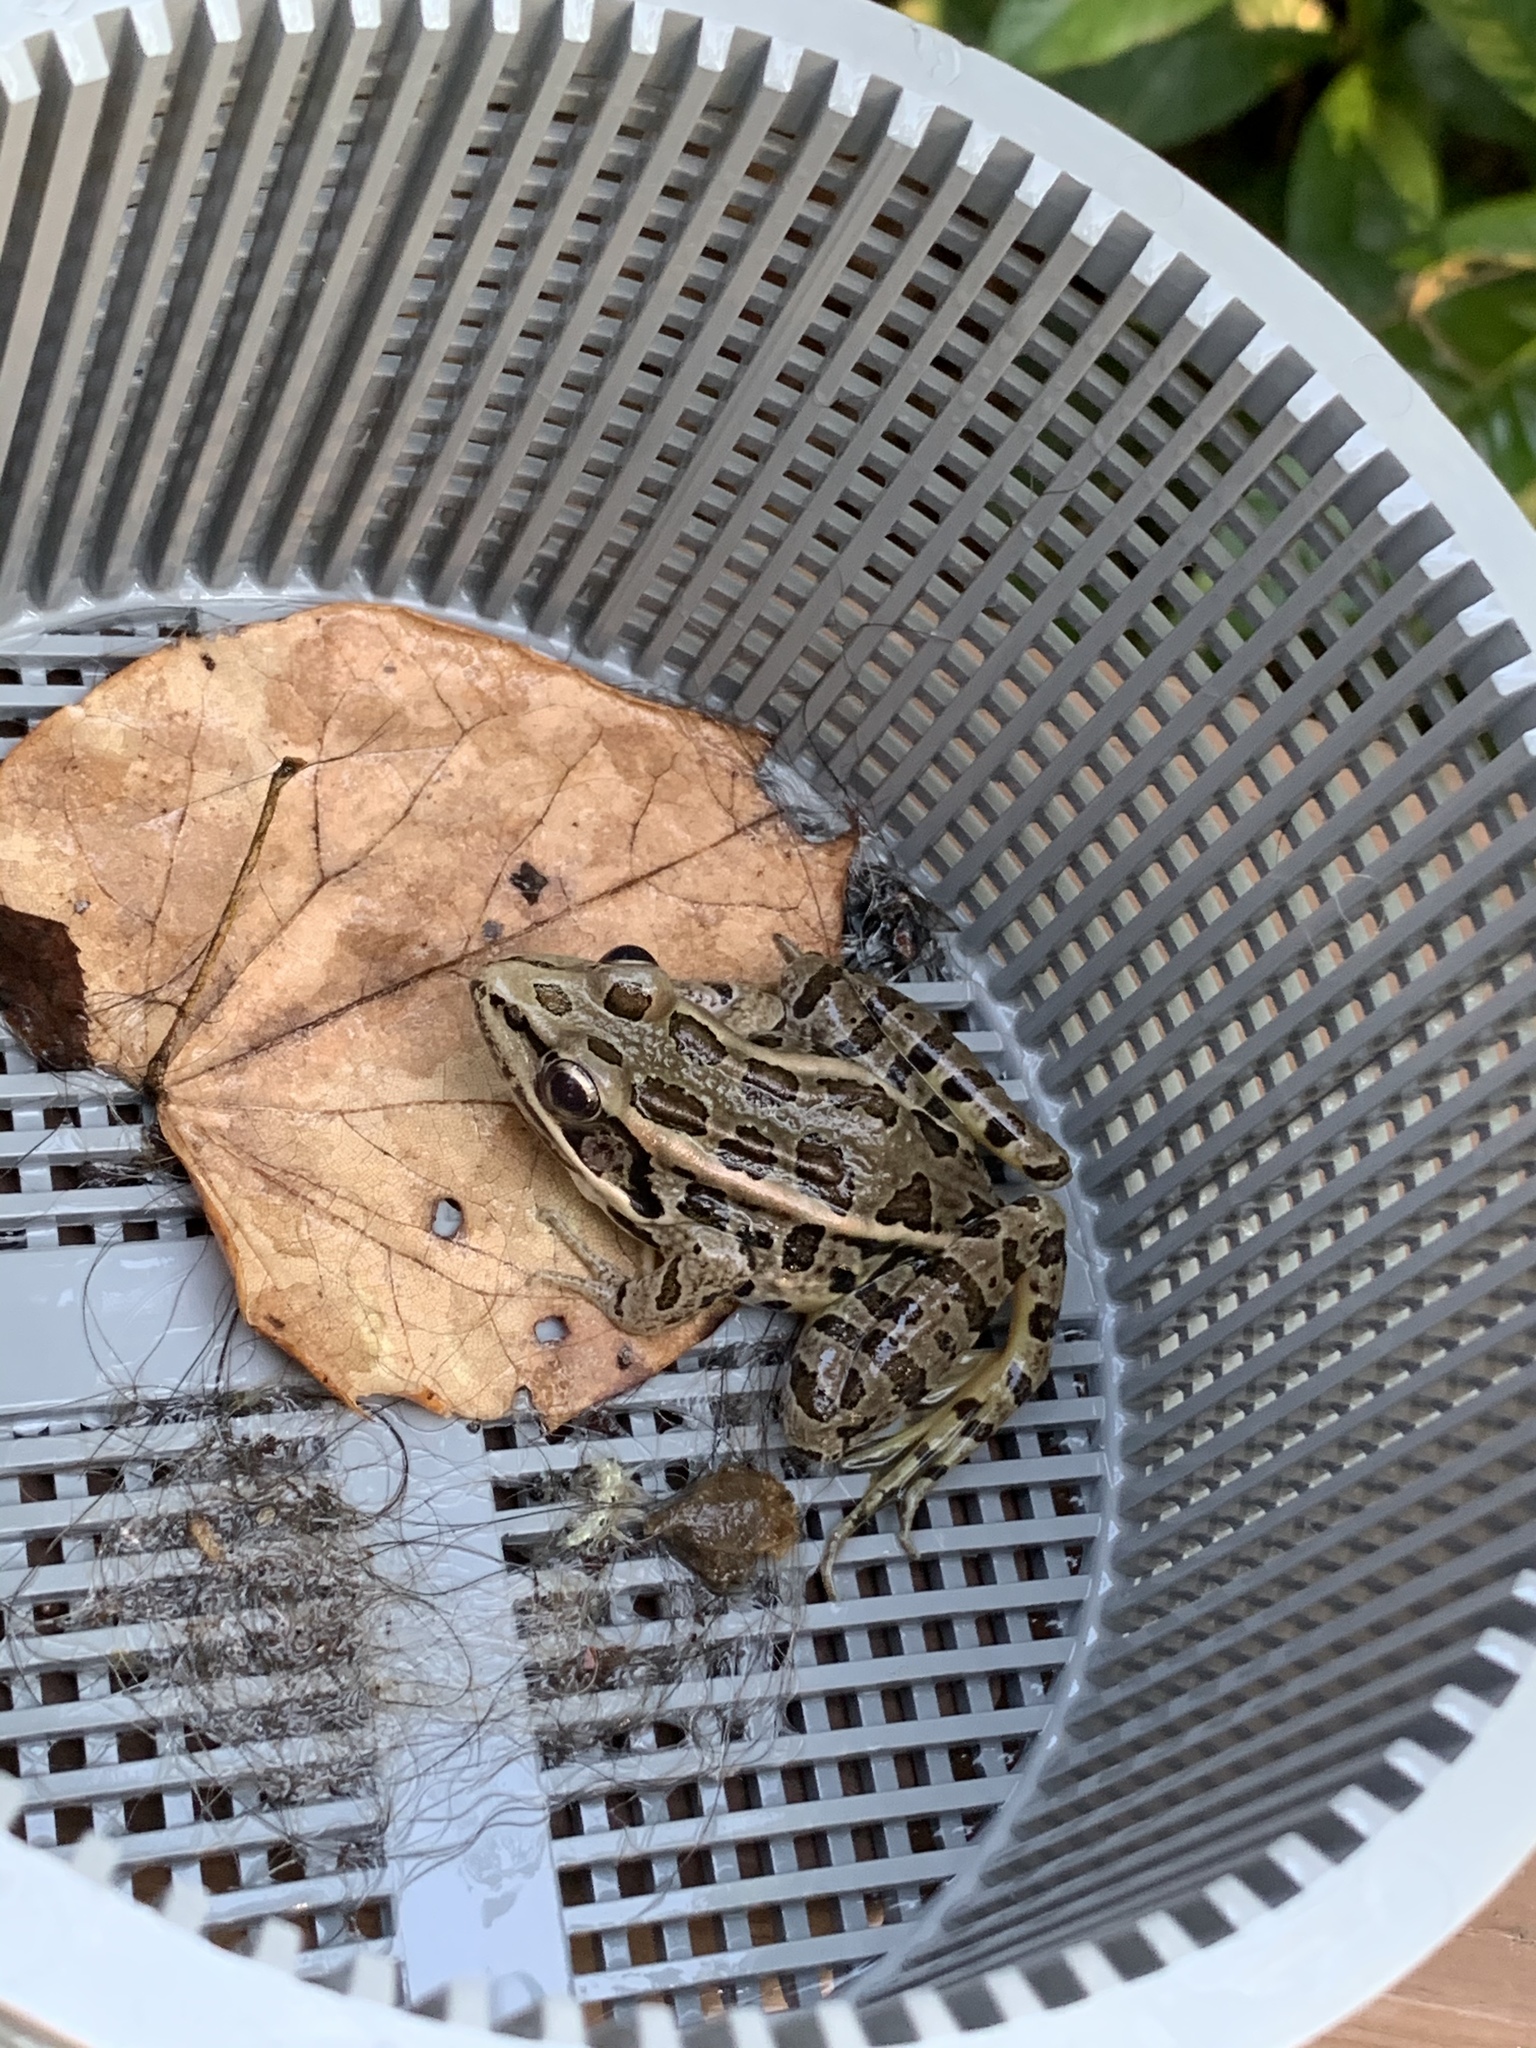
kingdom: Animalia
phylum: Chordata
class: Amphibia
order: Anura
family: Ranidae
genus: Lithobates
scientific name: Lithobates palustris
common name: Pickerel frog
